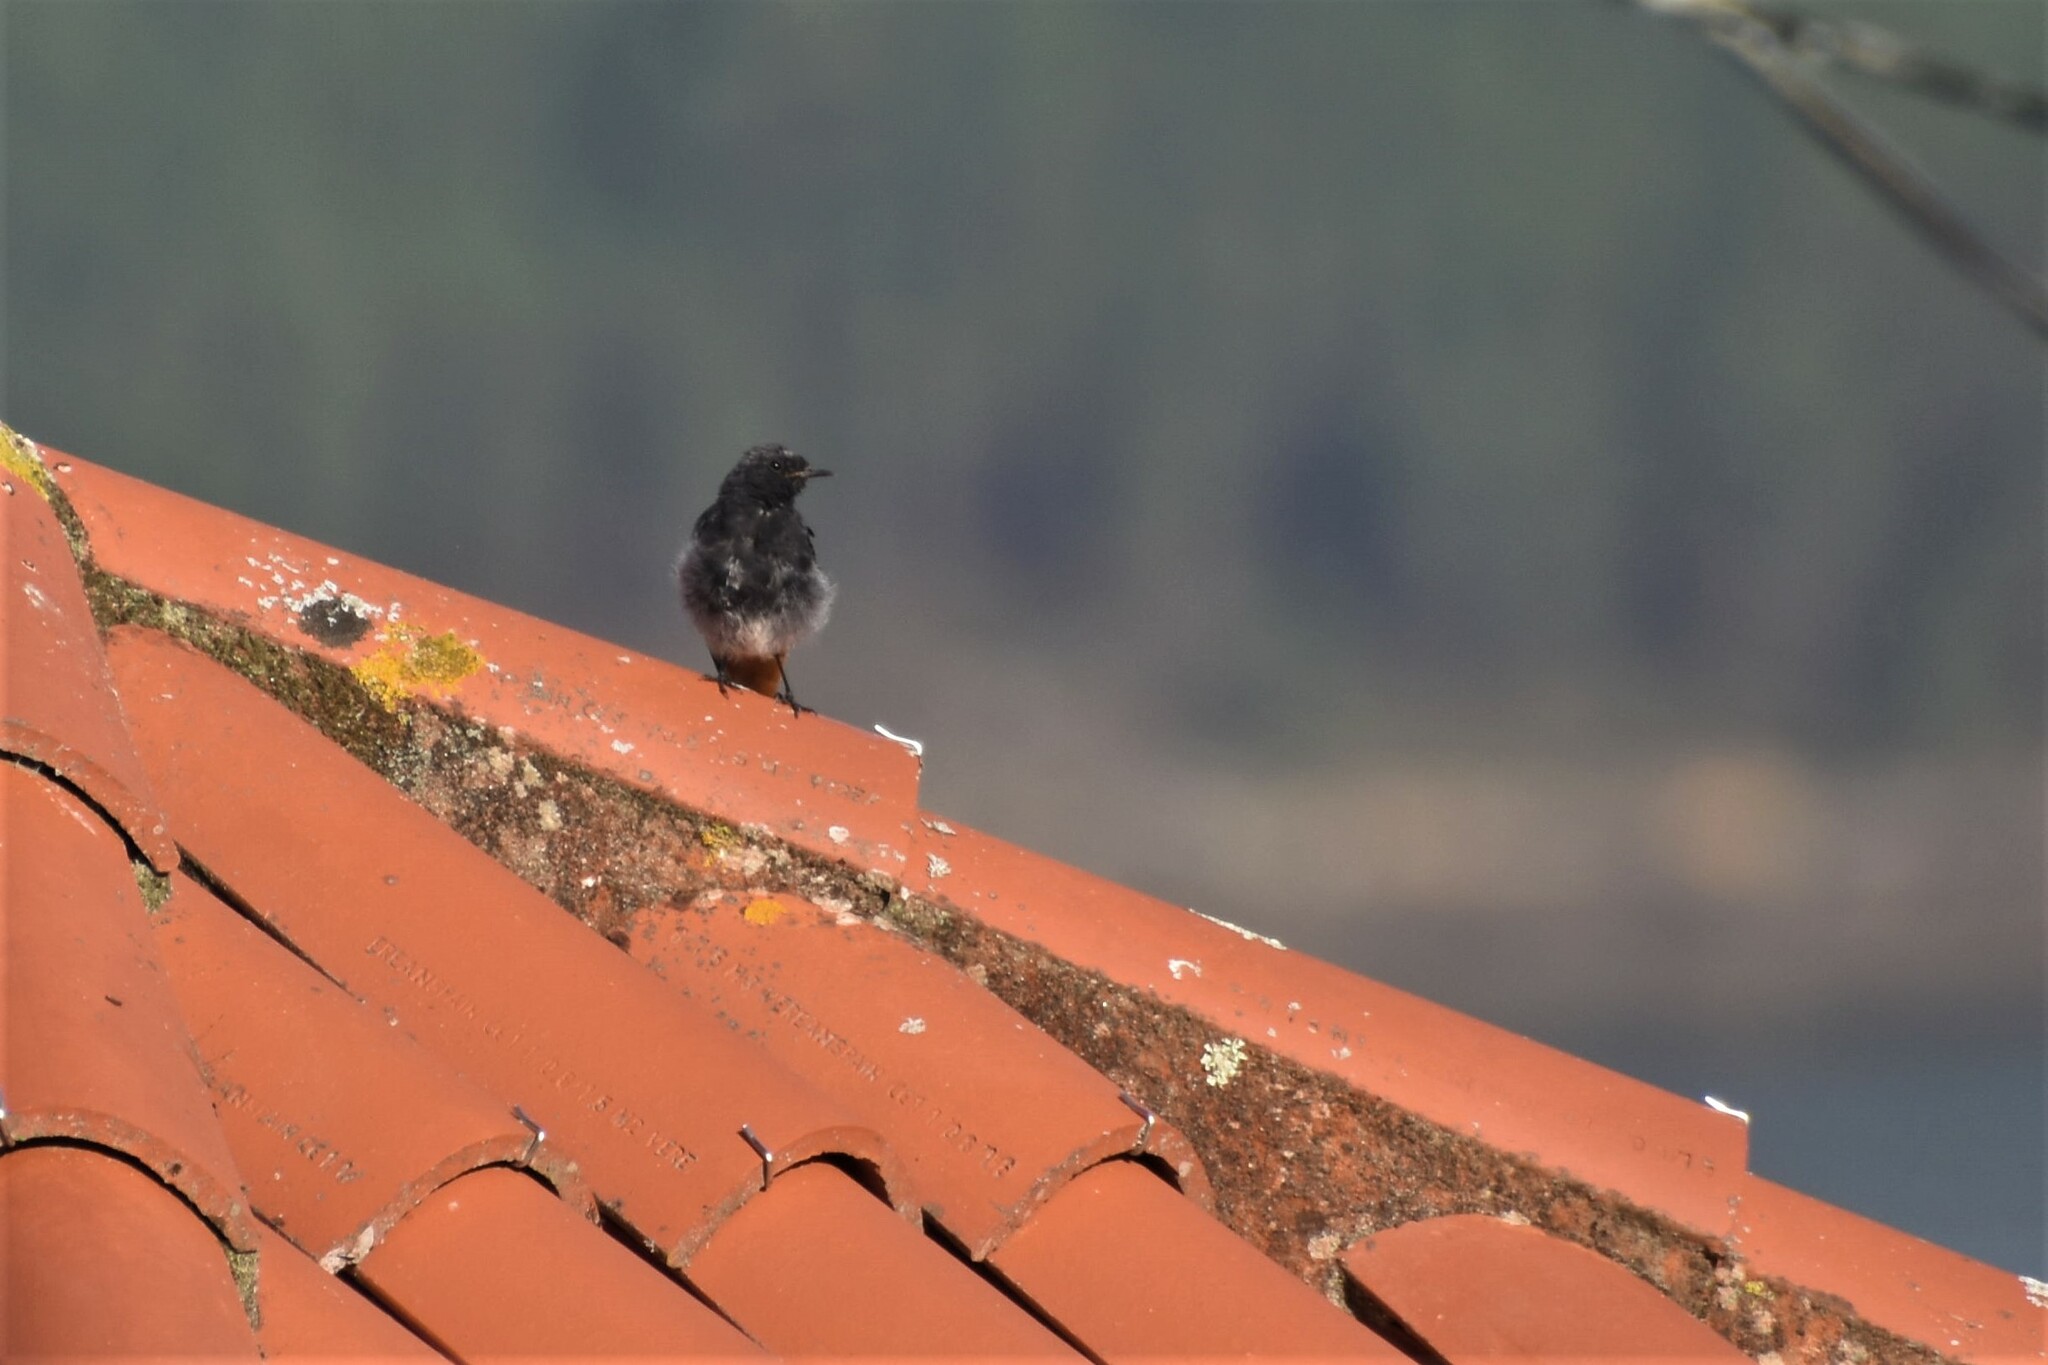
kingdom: Animalia
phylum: Chordata
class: Aves
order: Passeriformes
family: Muscicapidae
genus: Phoenicurus
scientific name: Phoenicurus ochruros
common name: Black redstart
